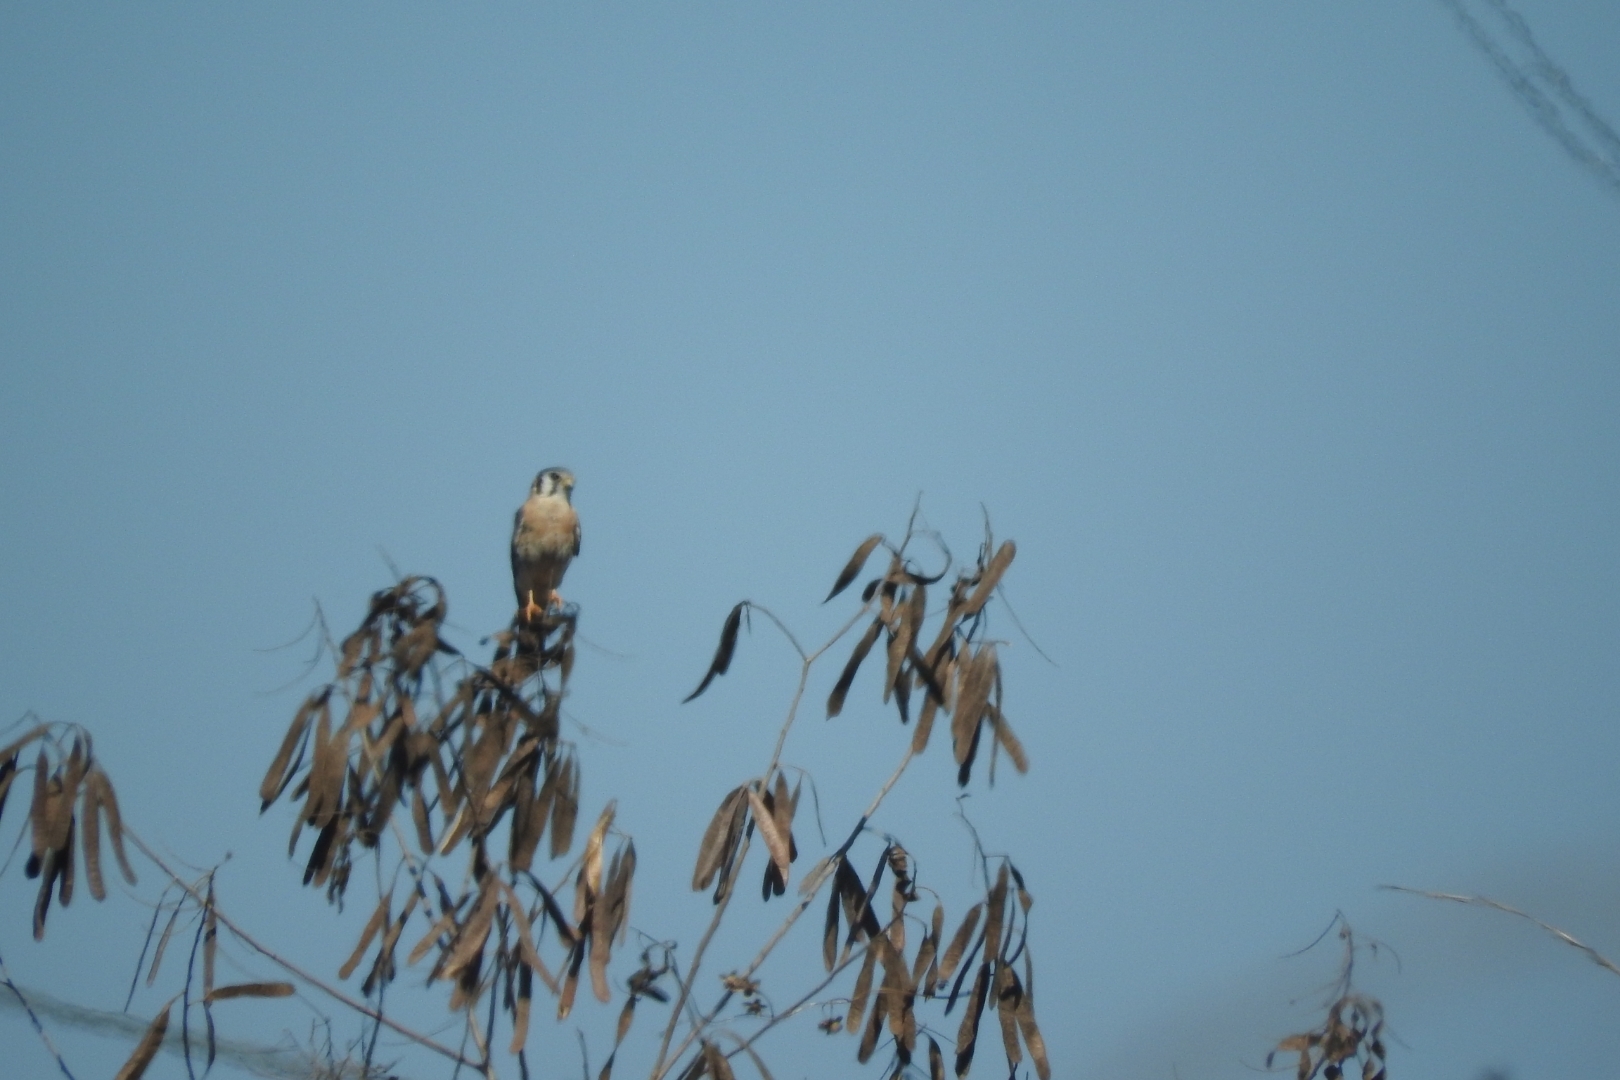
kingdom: Animalia
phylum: Chordata
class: Aves
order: Falconiformes
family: Falconidae
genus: Falco
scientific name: Falco sparverius
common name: American kestrel
